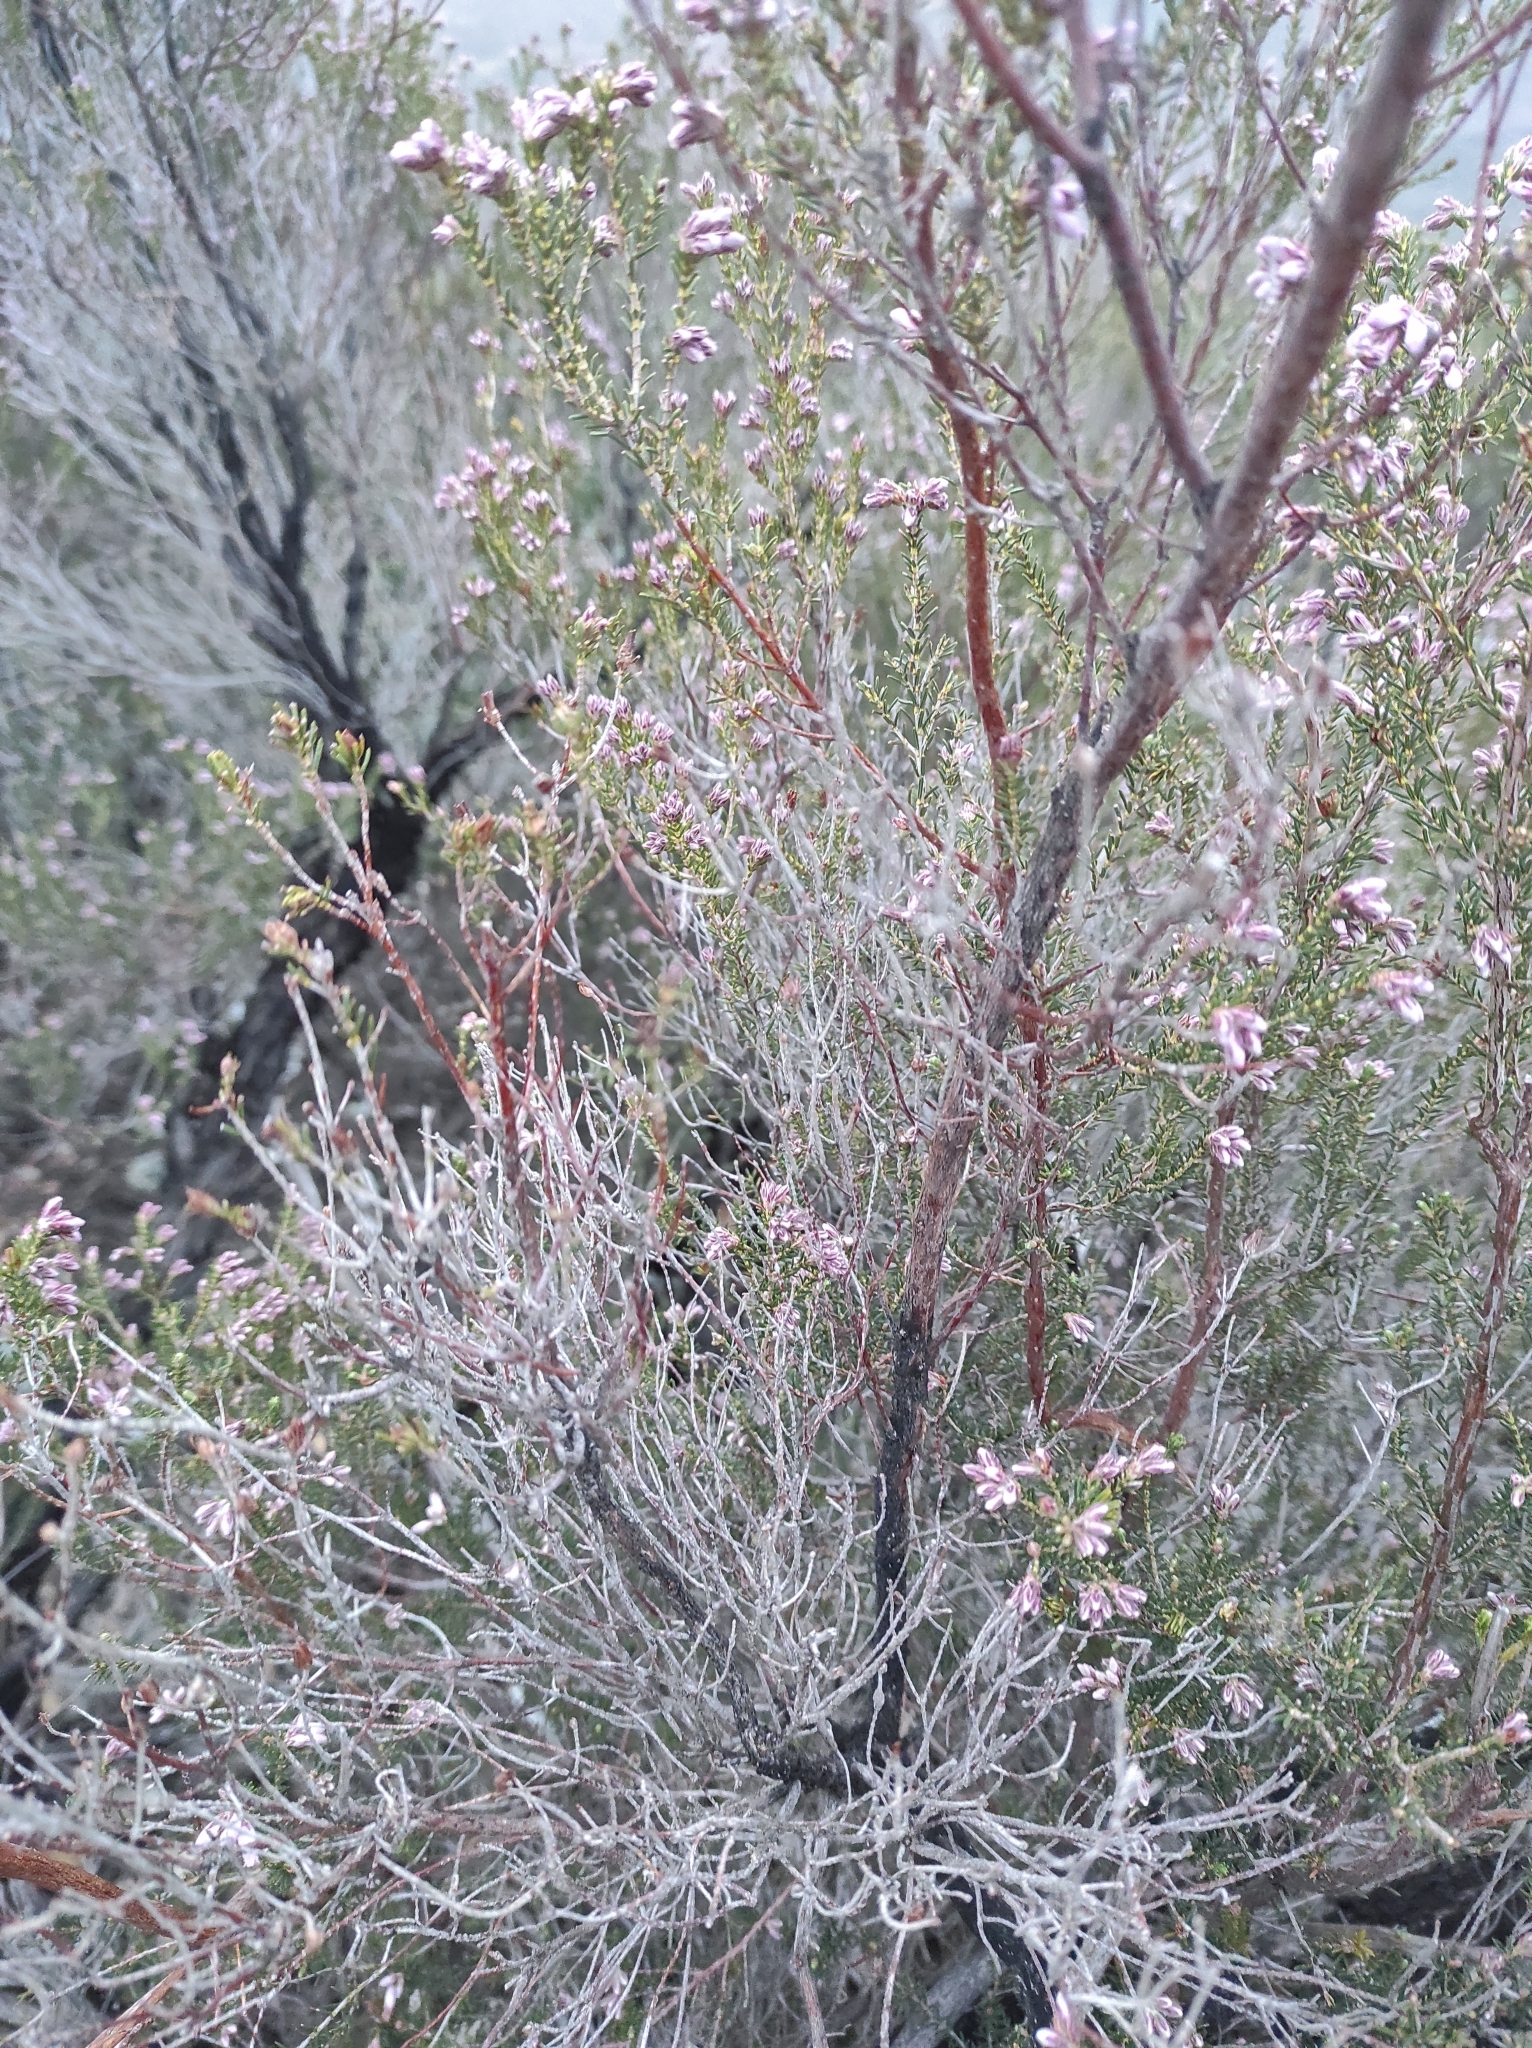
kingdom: Plantae
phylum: Tracheophyta
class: Magnoliopsida
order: Ericales
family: Ericaceae
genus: Erica
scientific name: Erica australis
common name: Spanish heath
